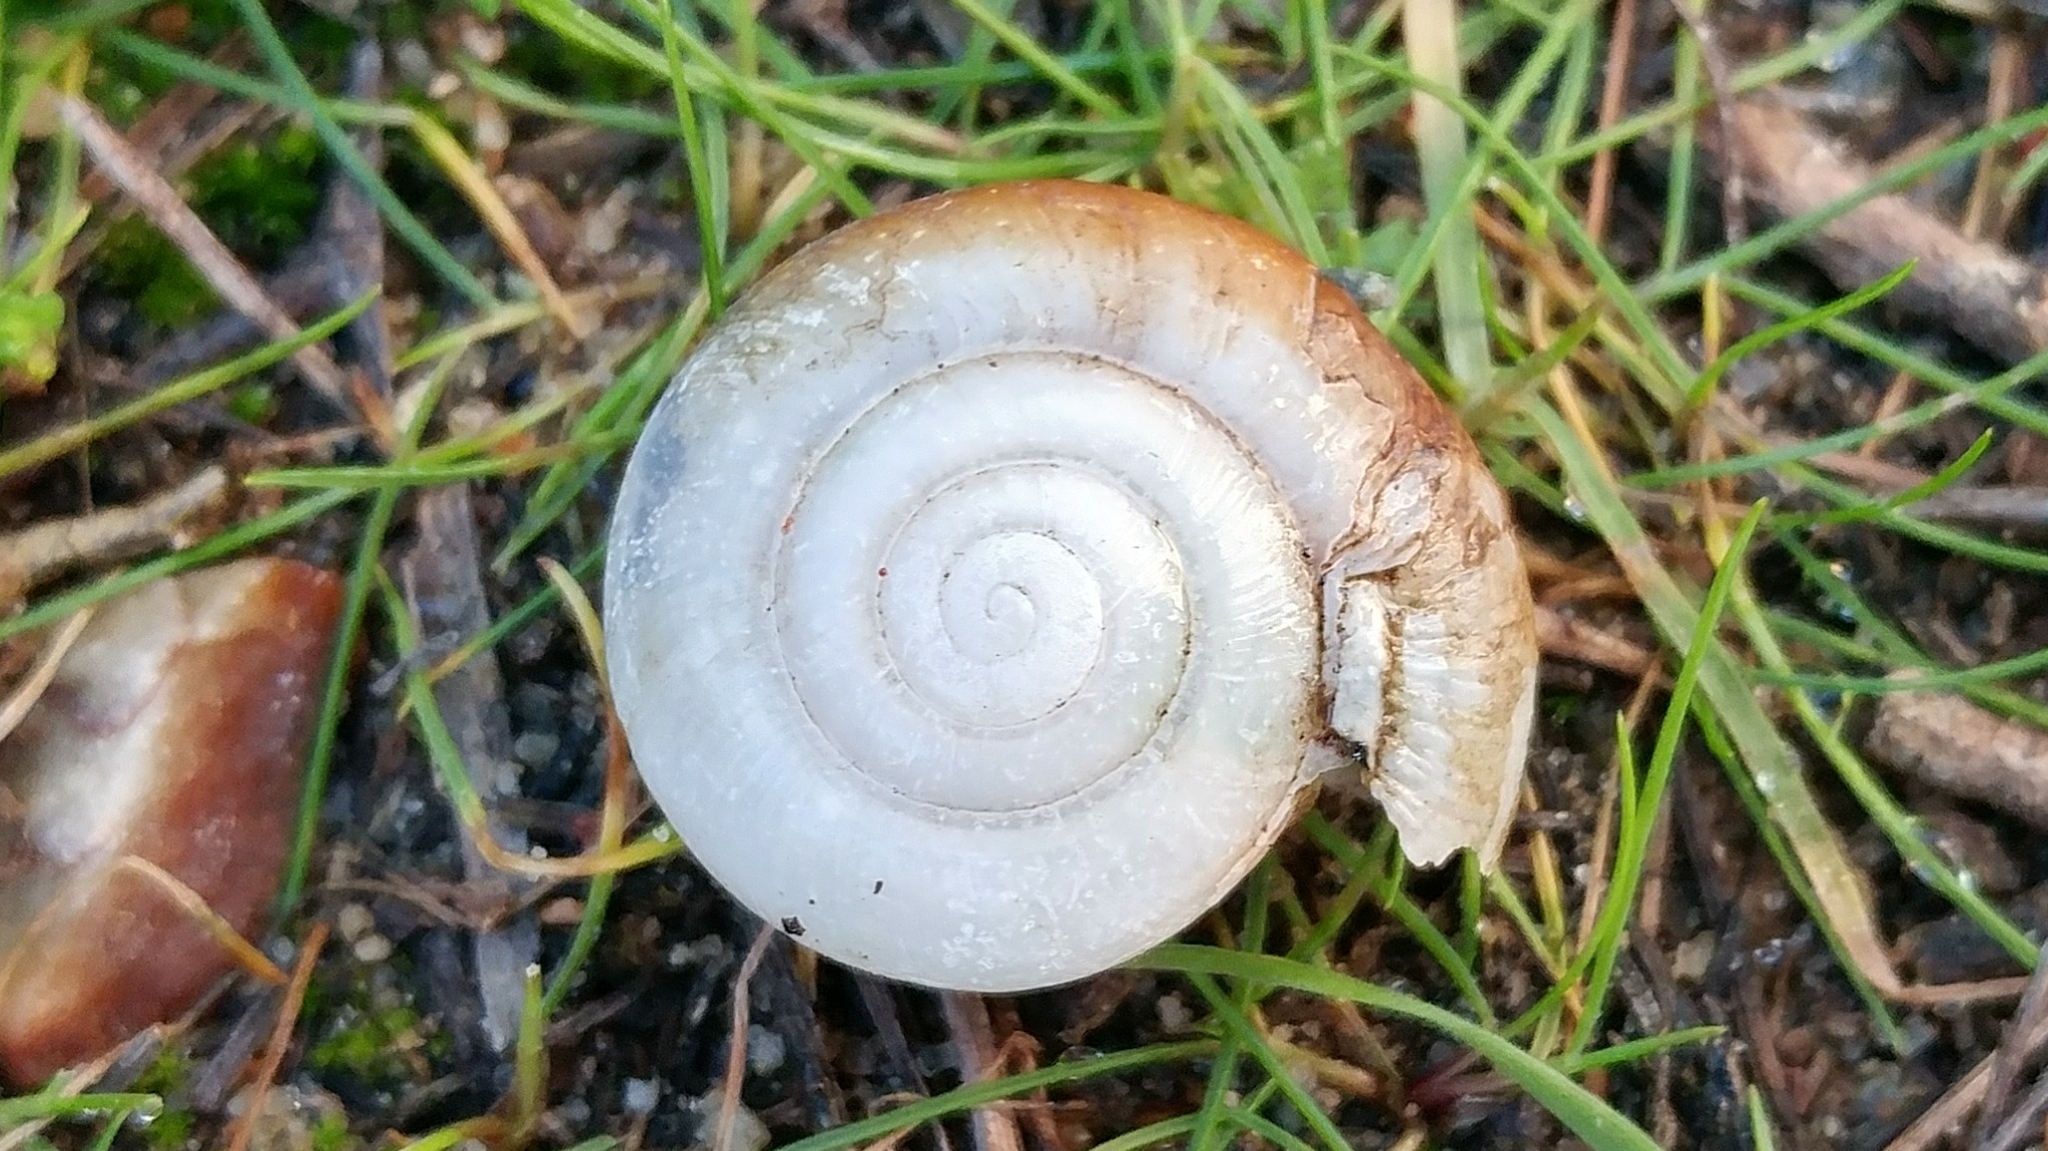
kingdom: Animalia
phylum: Mollusca
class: Gastropoda
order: Stylommatophora
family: Megomphicidae
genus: Glyptostoma
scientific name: Glyptostoma newberryanum
